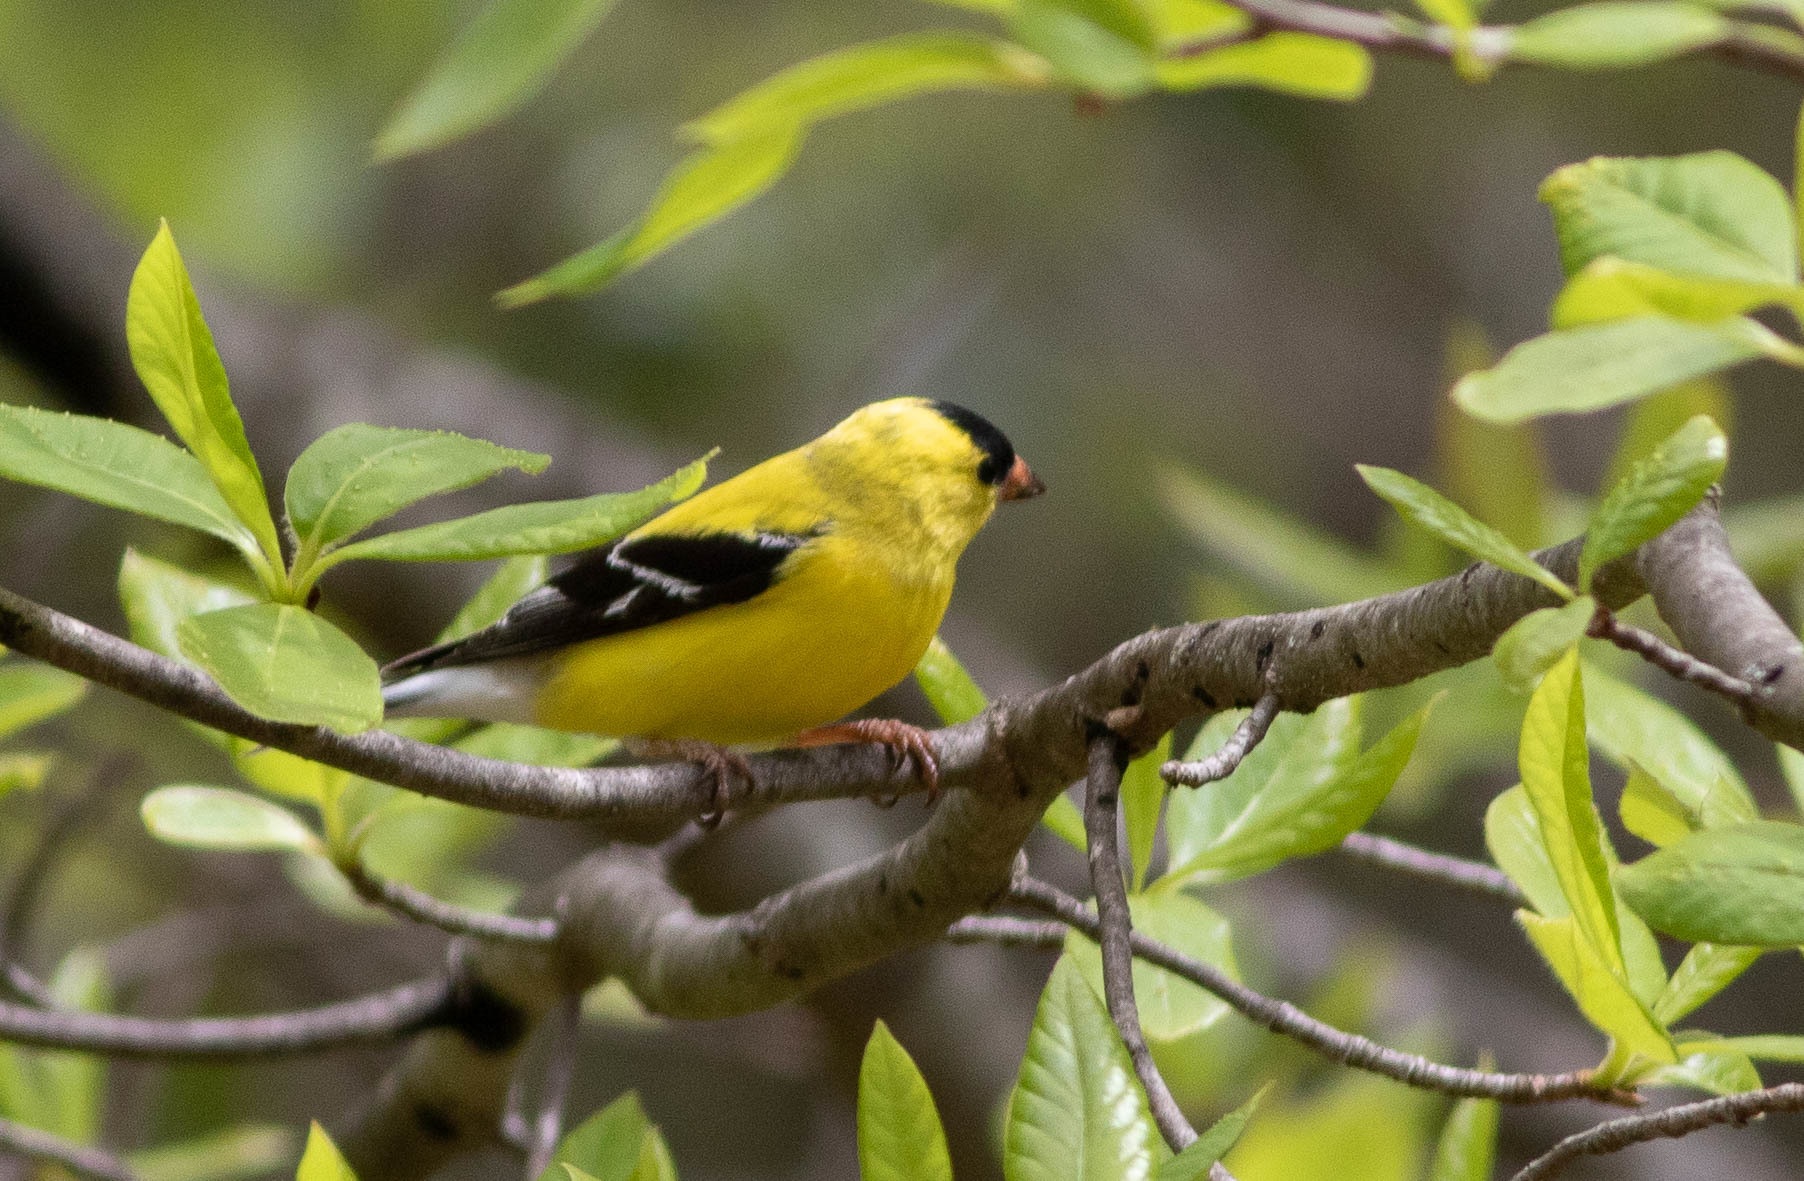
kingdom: Animalia
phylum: Chordata
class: Aves
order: Passeriformes
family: Fringillidae
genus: Spinus
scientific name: Spinus tristis
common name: American goldfinch
